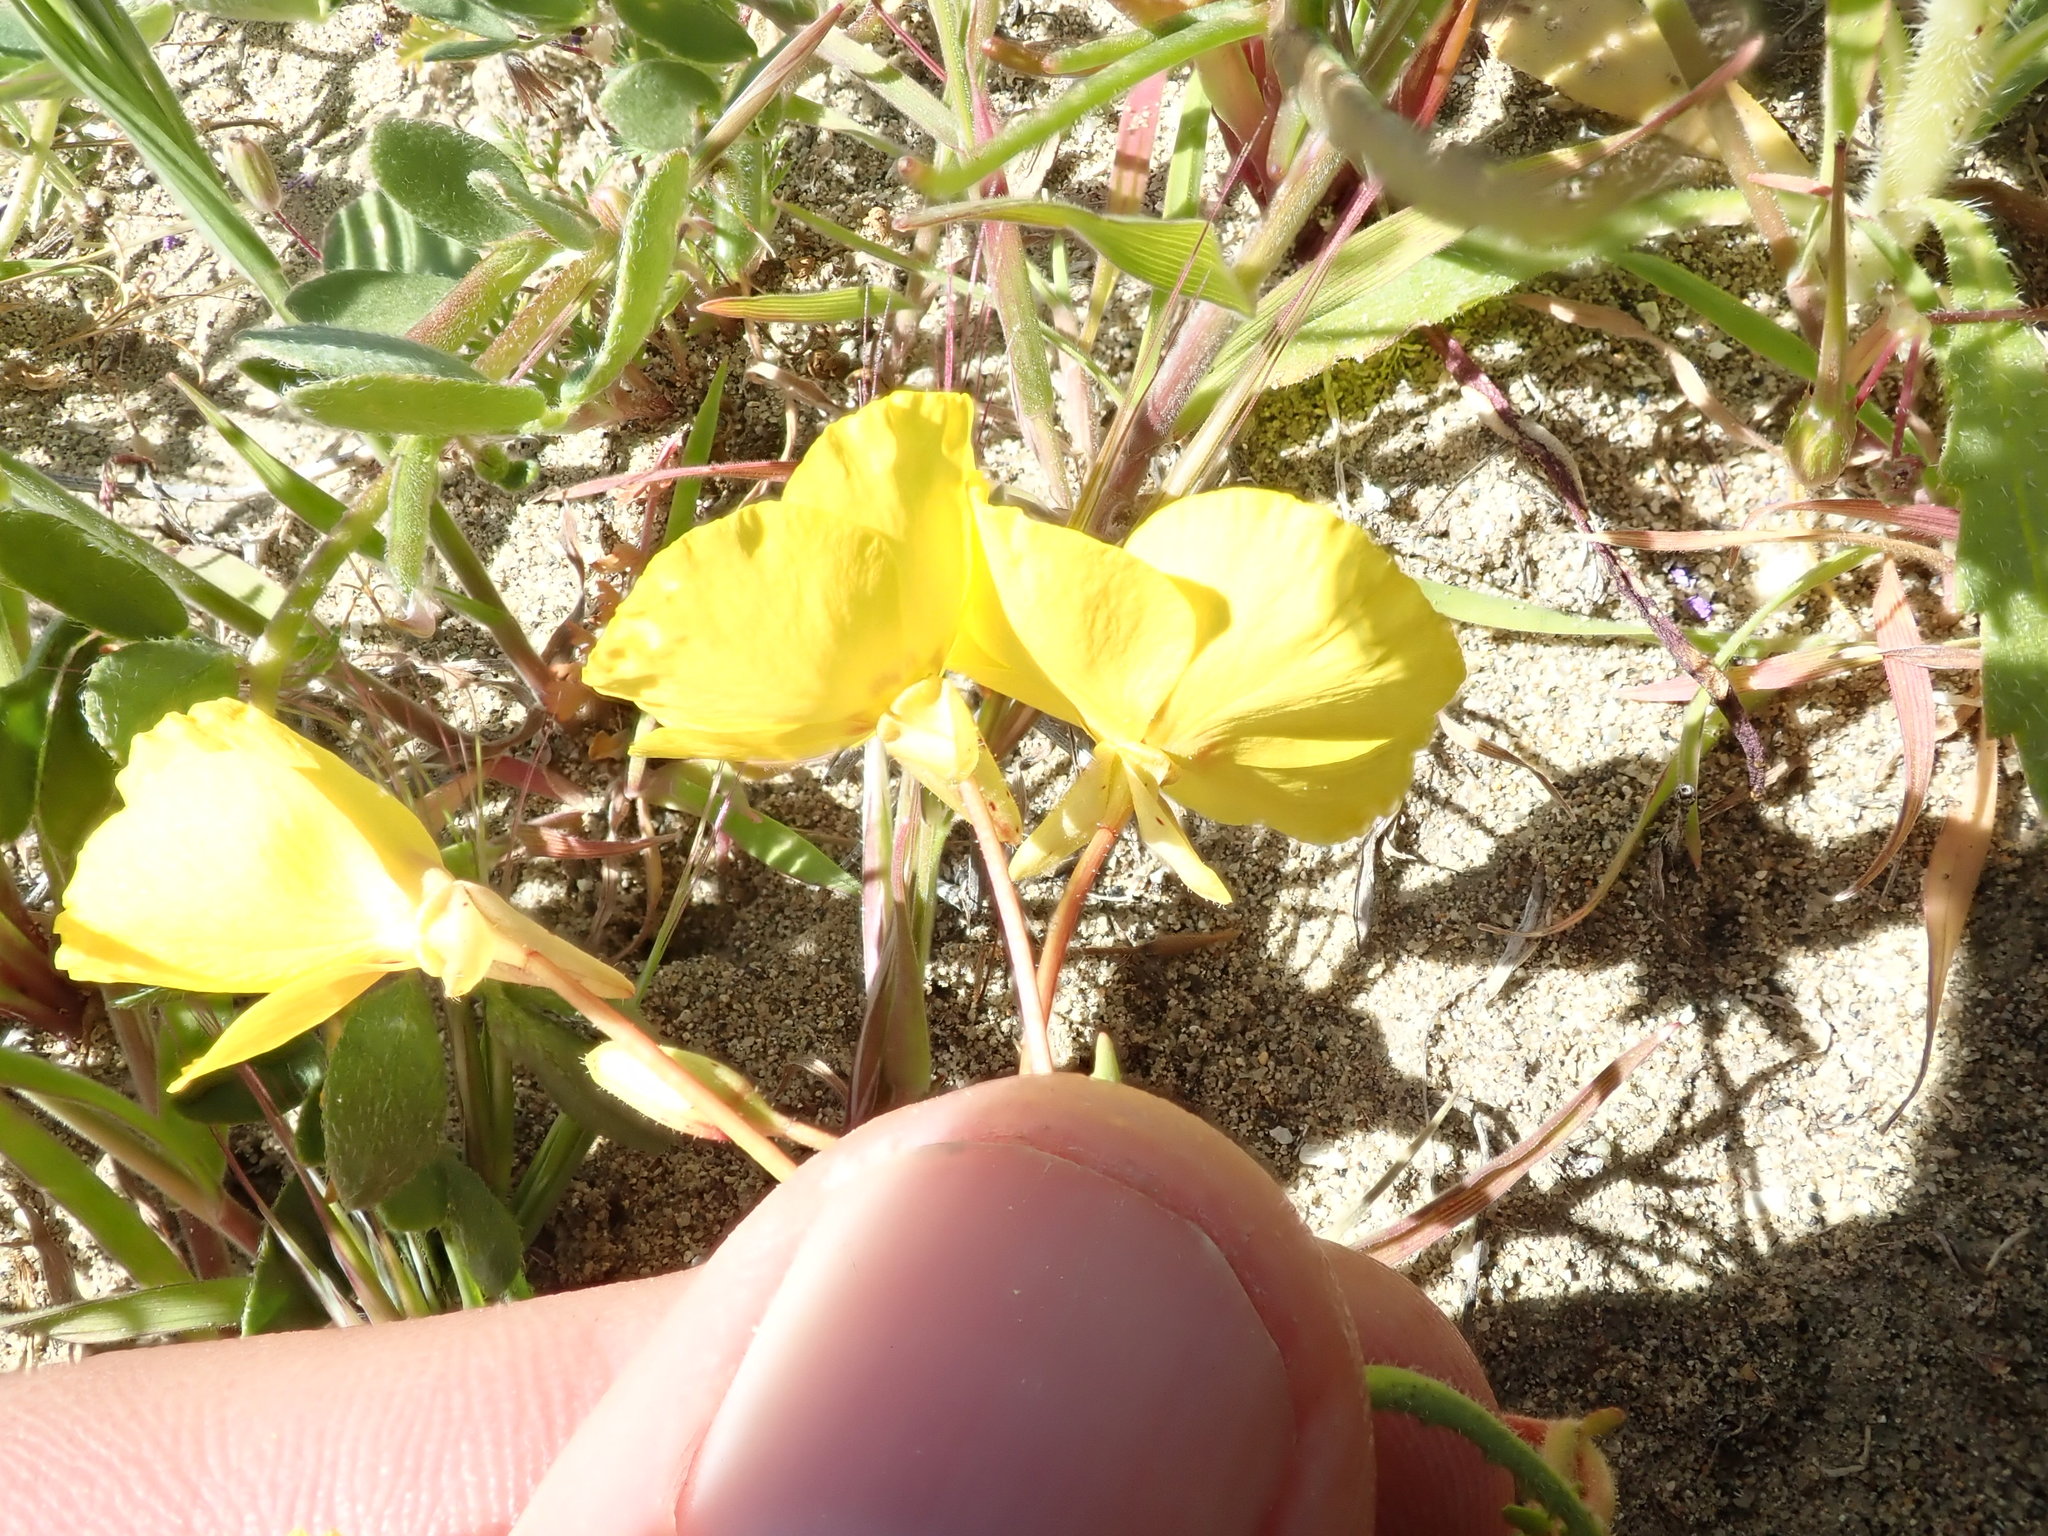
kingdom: Plantae
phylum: Tracheophyta
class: Magnoliopsida
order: Myrtales
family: Onagraceae
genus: Camissonia
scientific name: Camissonia campestris
